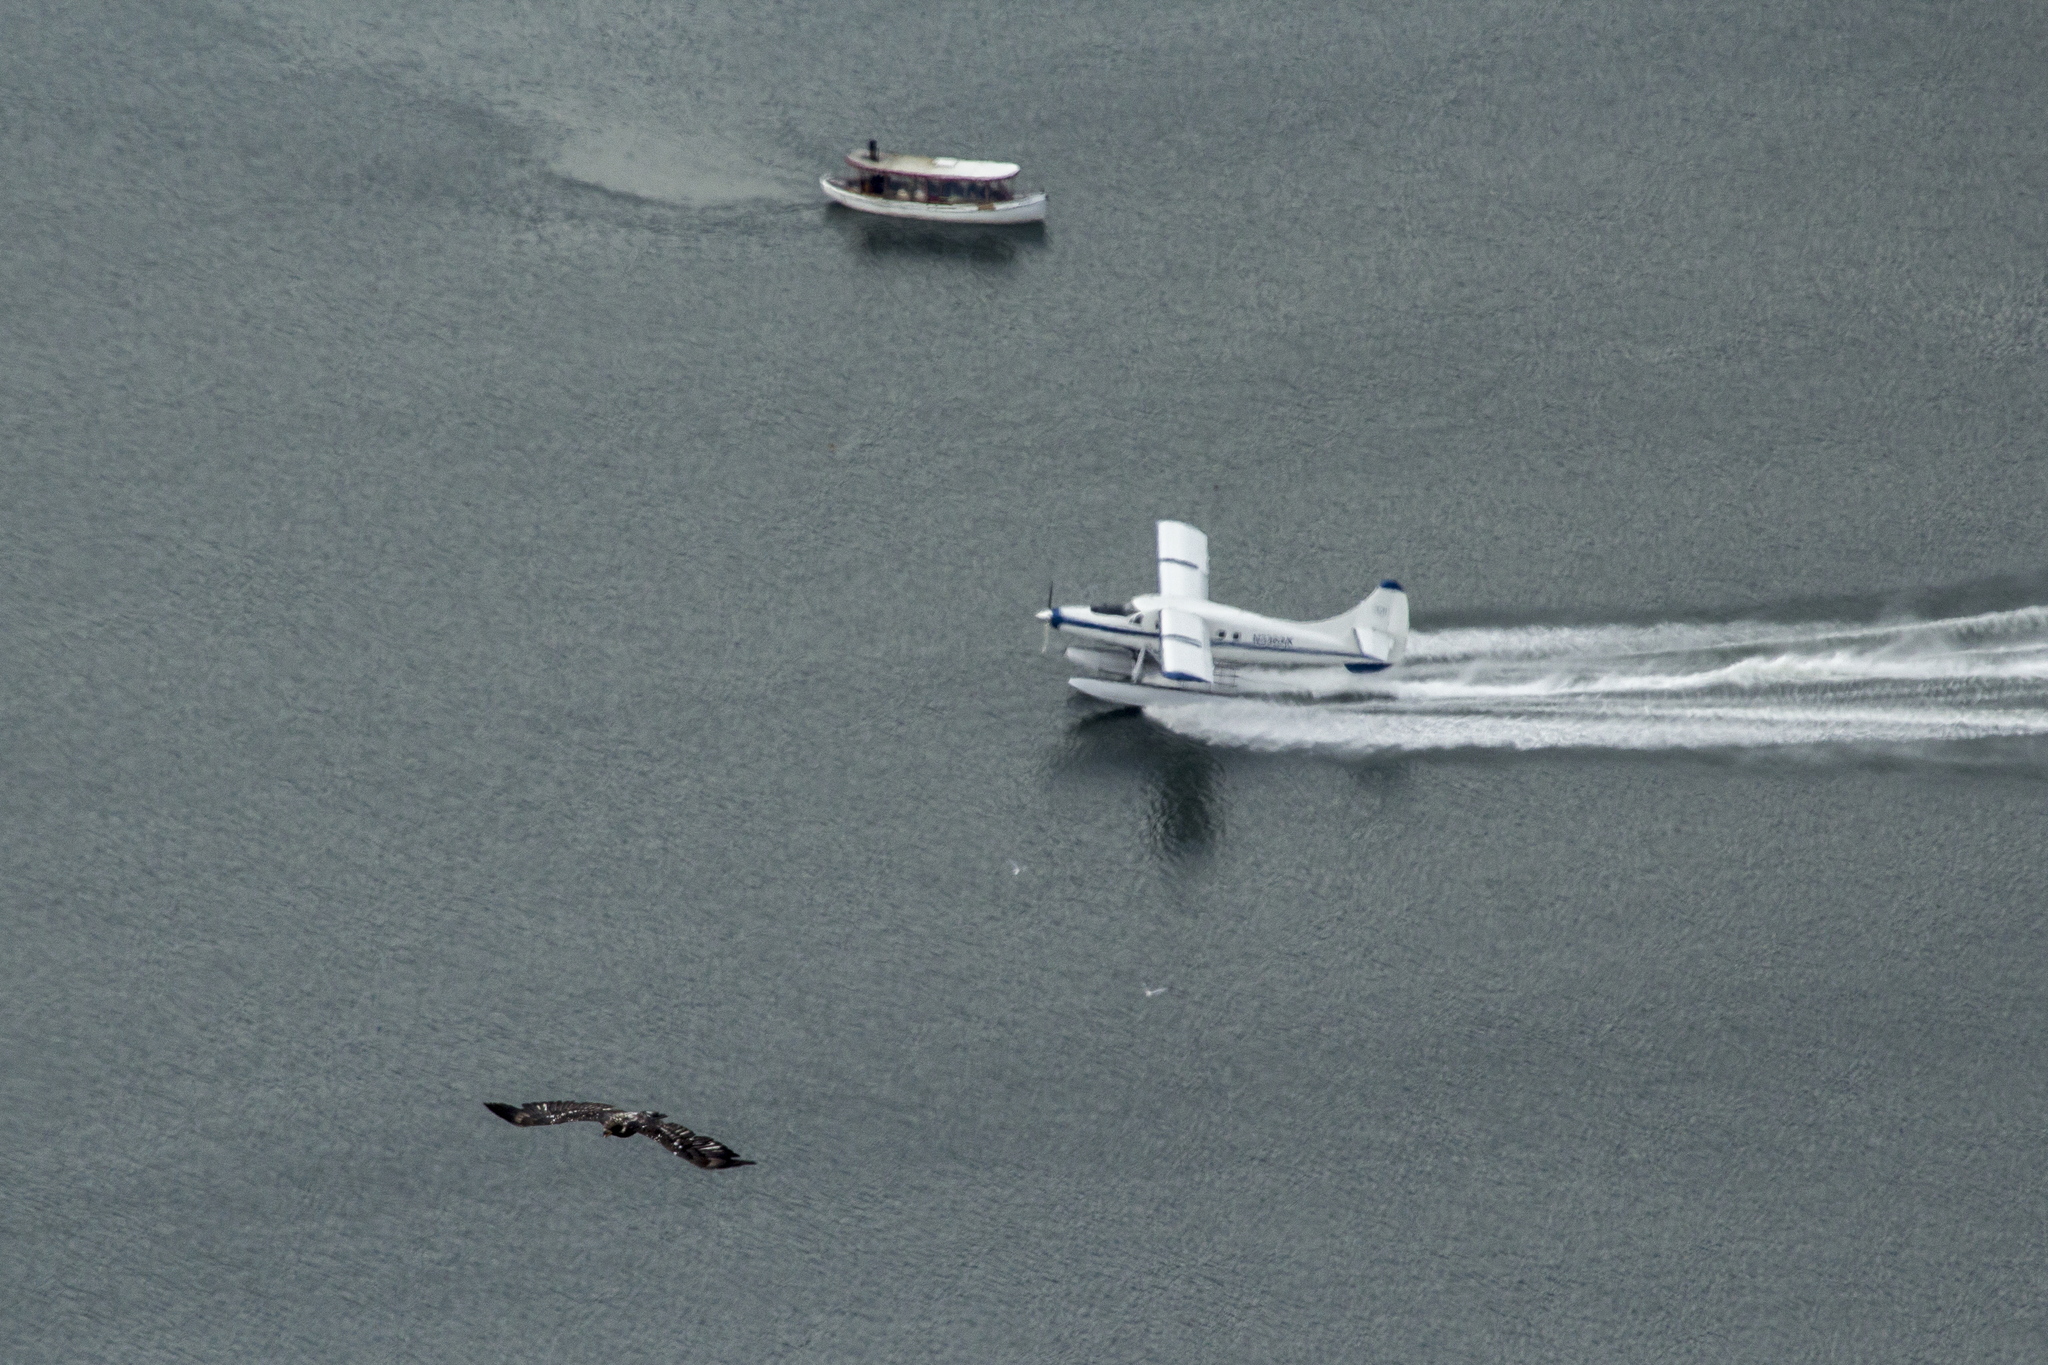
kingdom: Animalia
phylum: Chordata
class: Aves
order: Accipitriformes
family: Accipitridae
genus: Haliaeetus
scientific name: Haliaeetus leucocephalus
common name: Bald eagle
